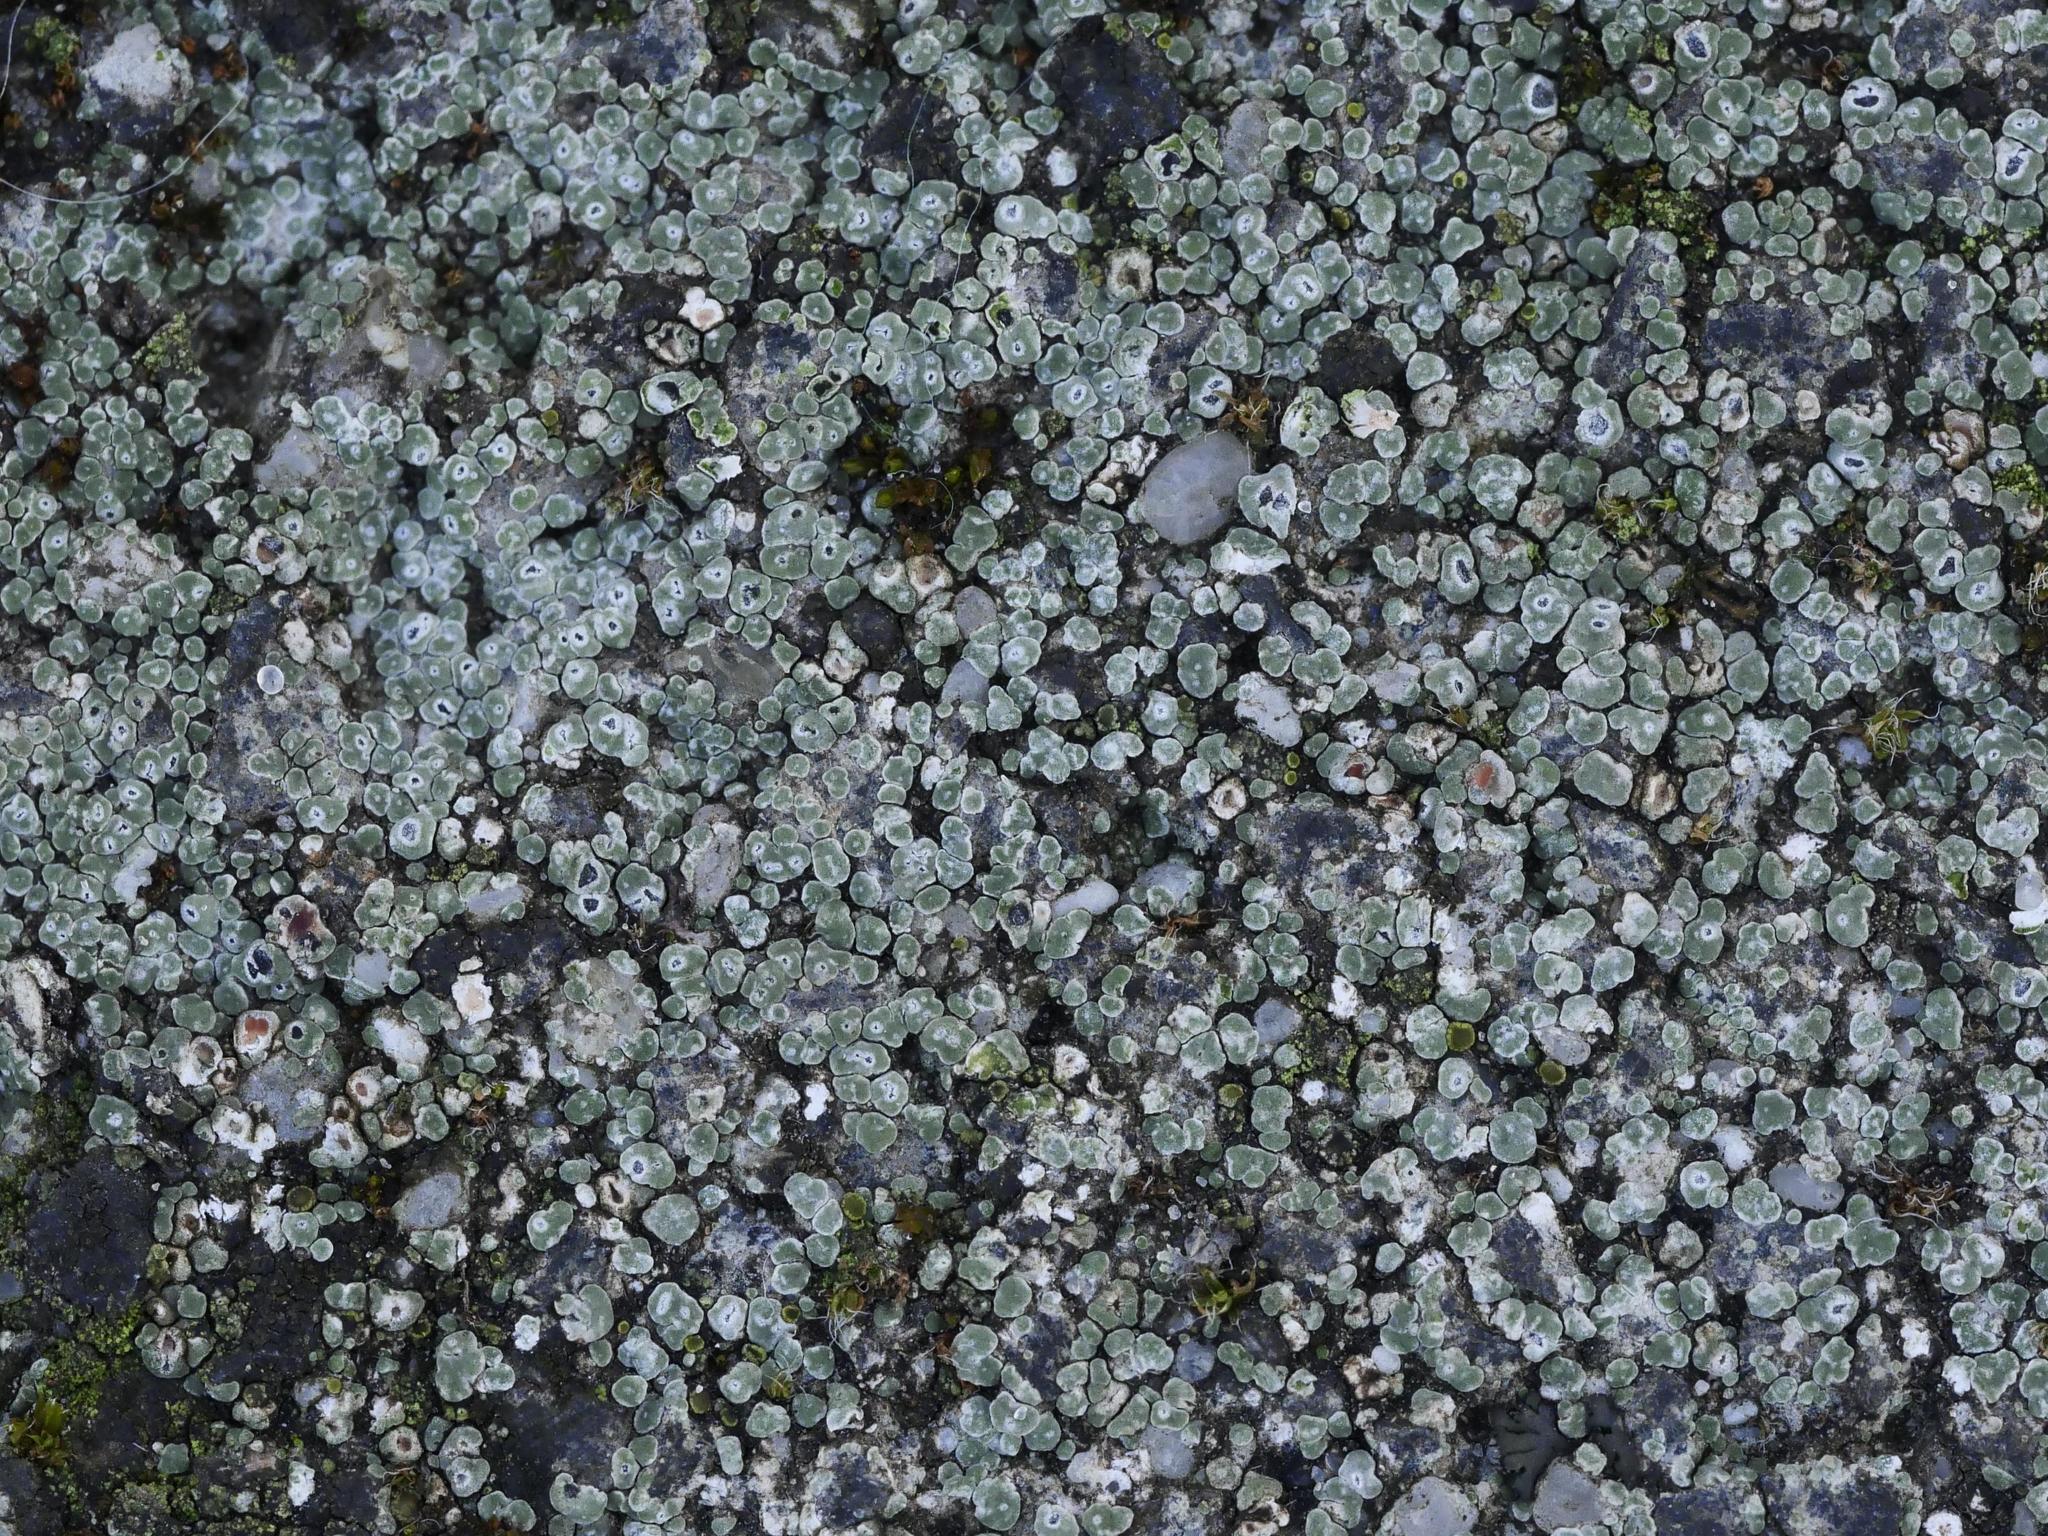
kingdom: Fungi
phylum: Ascomycota
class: Lecanoromycetes
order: Pertusariales
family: Megasporaceae
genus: Circinaria
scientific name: Circinaria contorta
